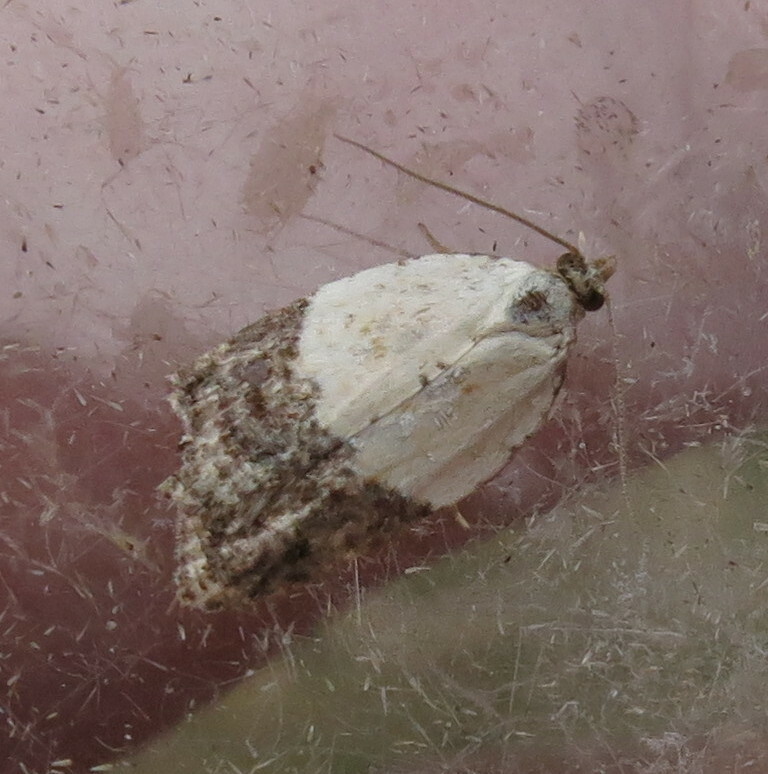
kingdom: Animalia
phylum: Arthropoda
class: Insecta
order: Lepidoptera
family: Tortricidae
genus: Acleris
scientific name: Acleris variegana
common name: Garden rose tortrix
